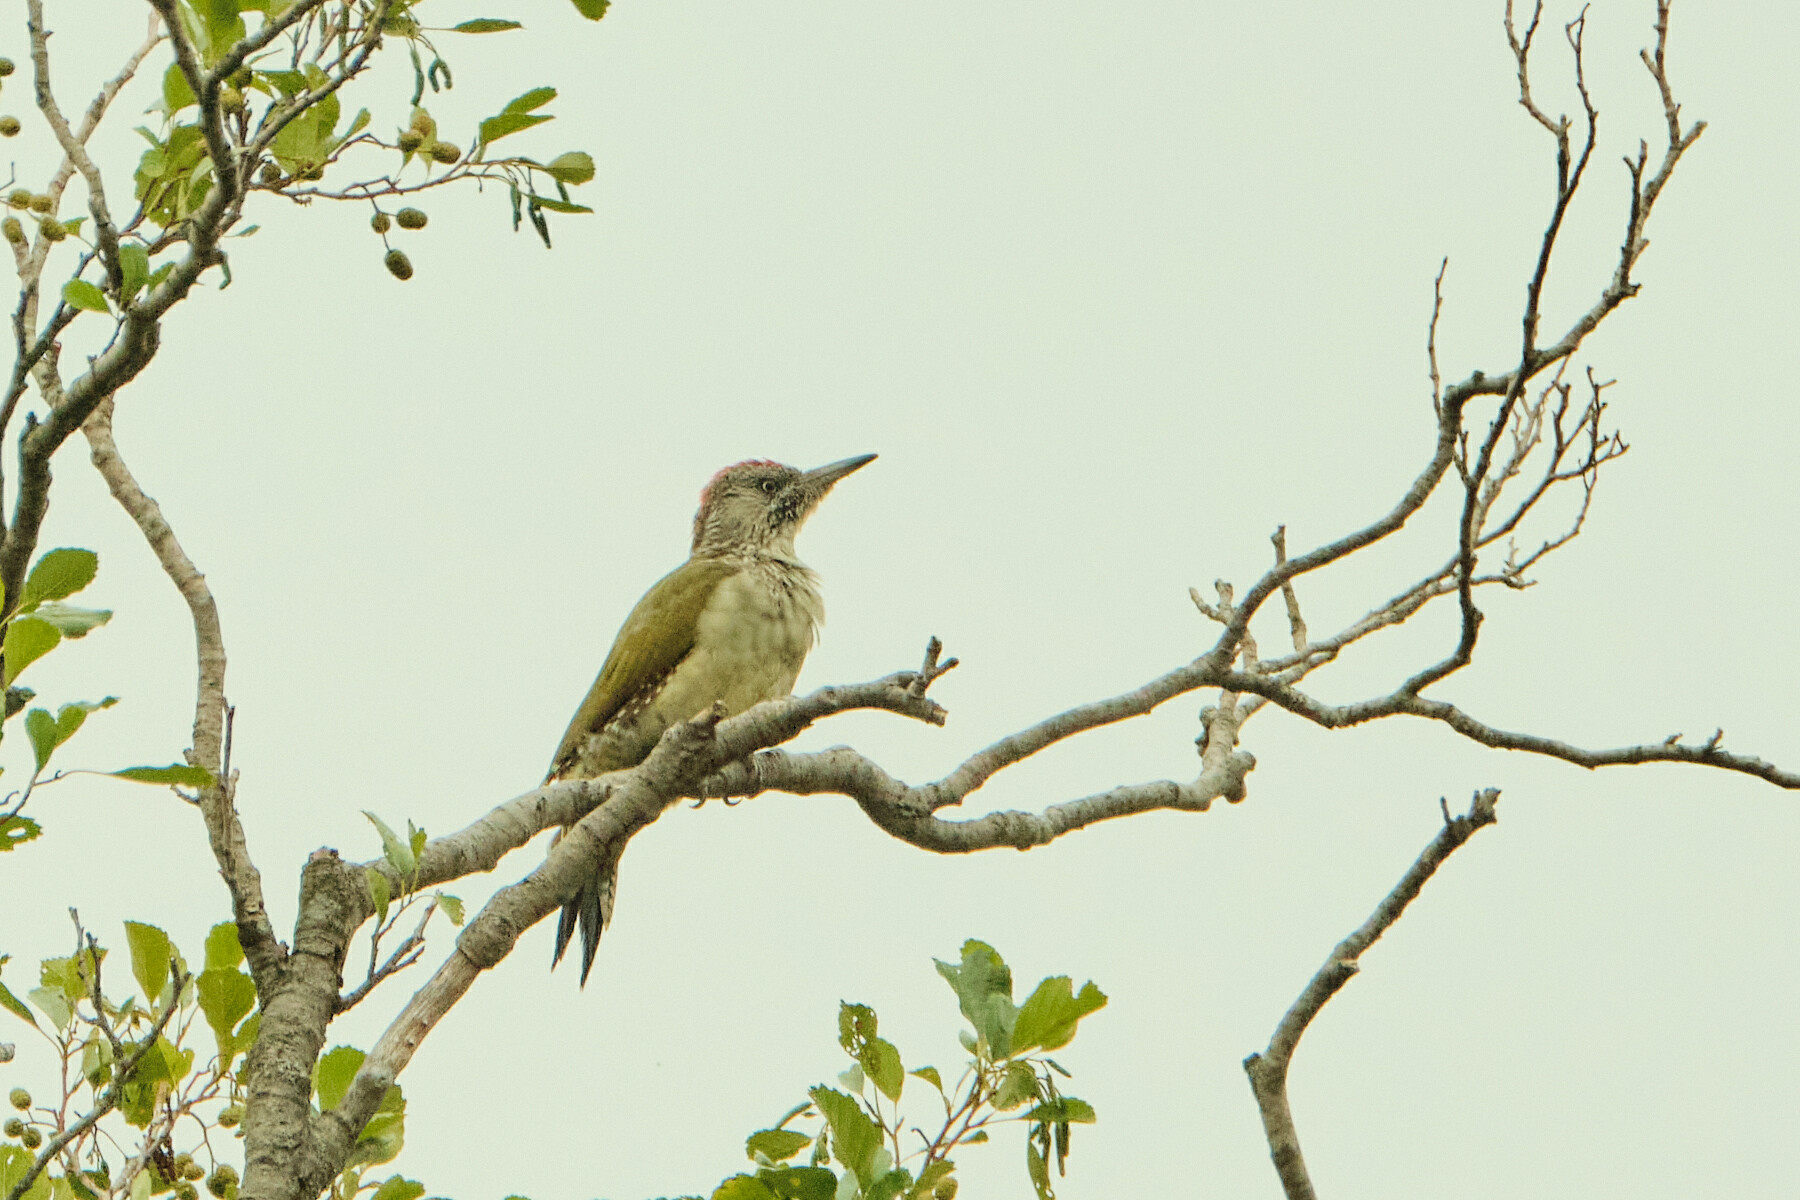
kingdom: Animalia
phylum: Chordata
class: Aves
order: Piciformes
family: Picidae
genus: Picus
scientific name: Picus viridis
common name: European green woodpecker
